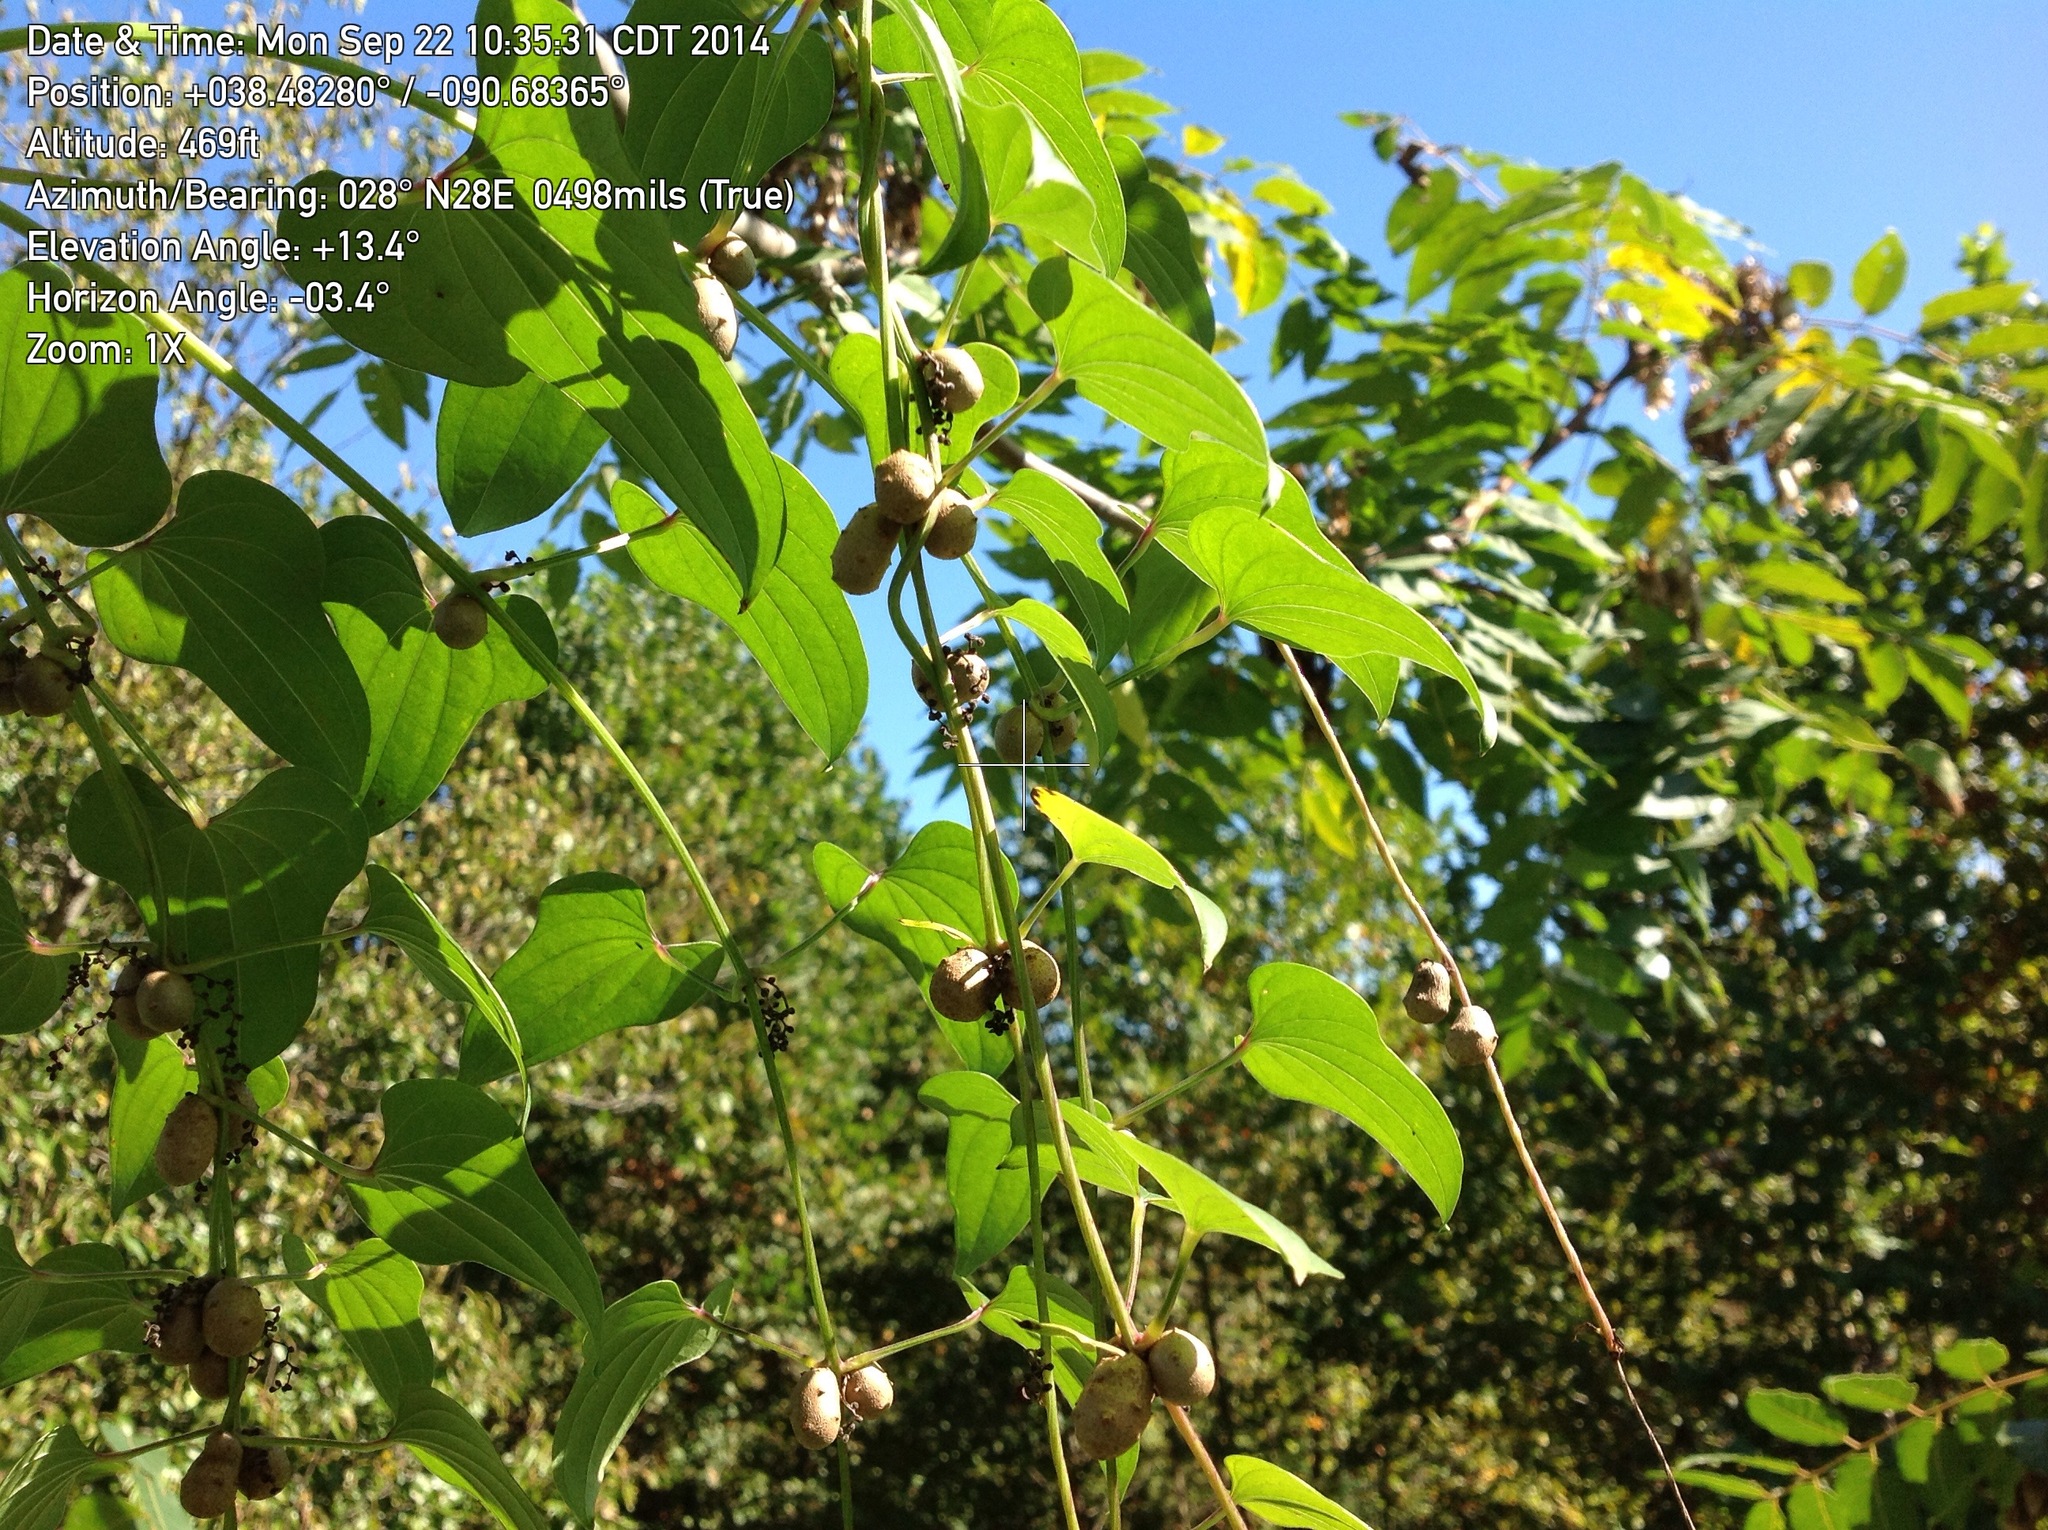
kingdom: Plantae
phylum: Tracheophyta
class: Liliopsida
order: Dioscoreales
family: Dioscoreaceae
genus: Dioscorea
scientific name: Dioscorea polystachya
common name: Chinese yam
